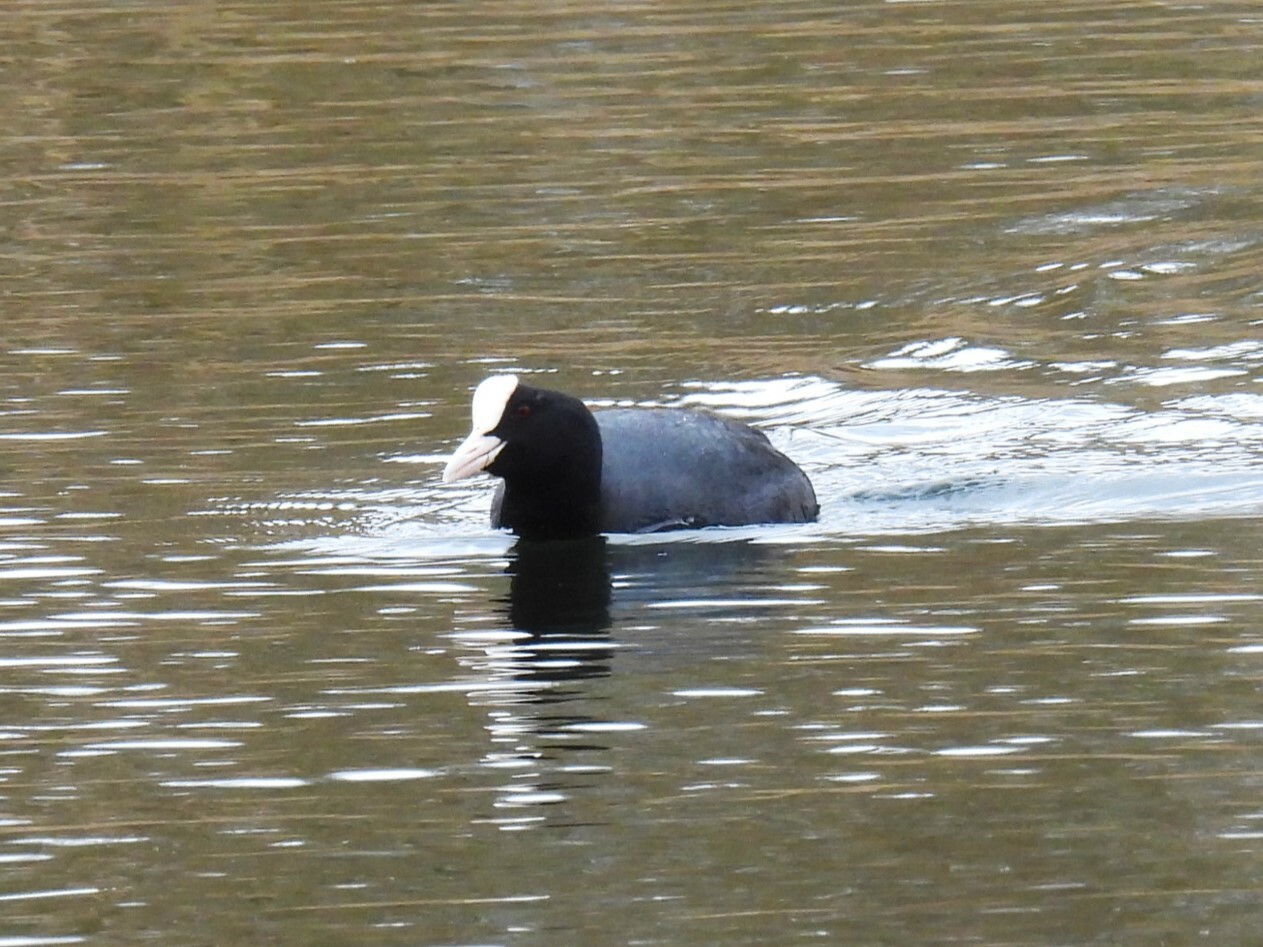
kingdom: Animalia
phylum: Chordata
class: Aves
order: Gruiformes
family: Rallidae
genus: Fulica
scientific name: Fulica atra
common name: Eurasian coot
